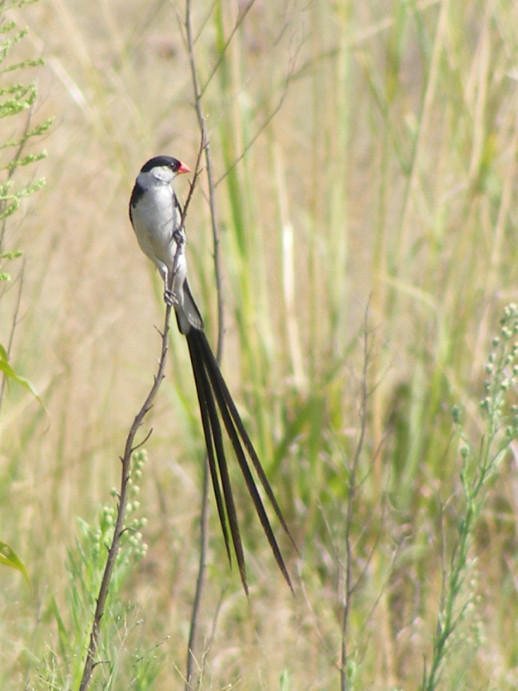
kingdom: Animalia
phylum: Chordata
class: Aves
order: Passeriformes
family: Viduidae
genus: Vidua
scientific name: Vidua macroura
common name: Pin-tailed whydah
